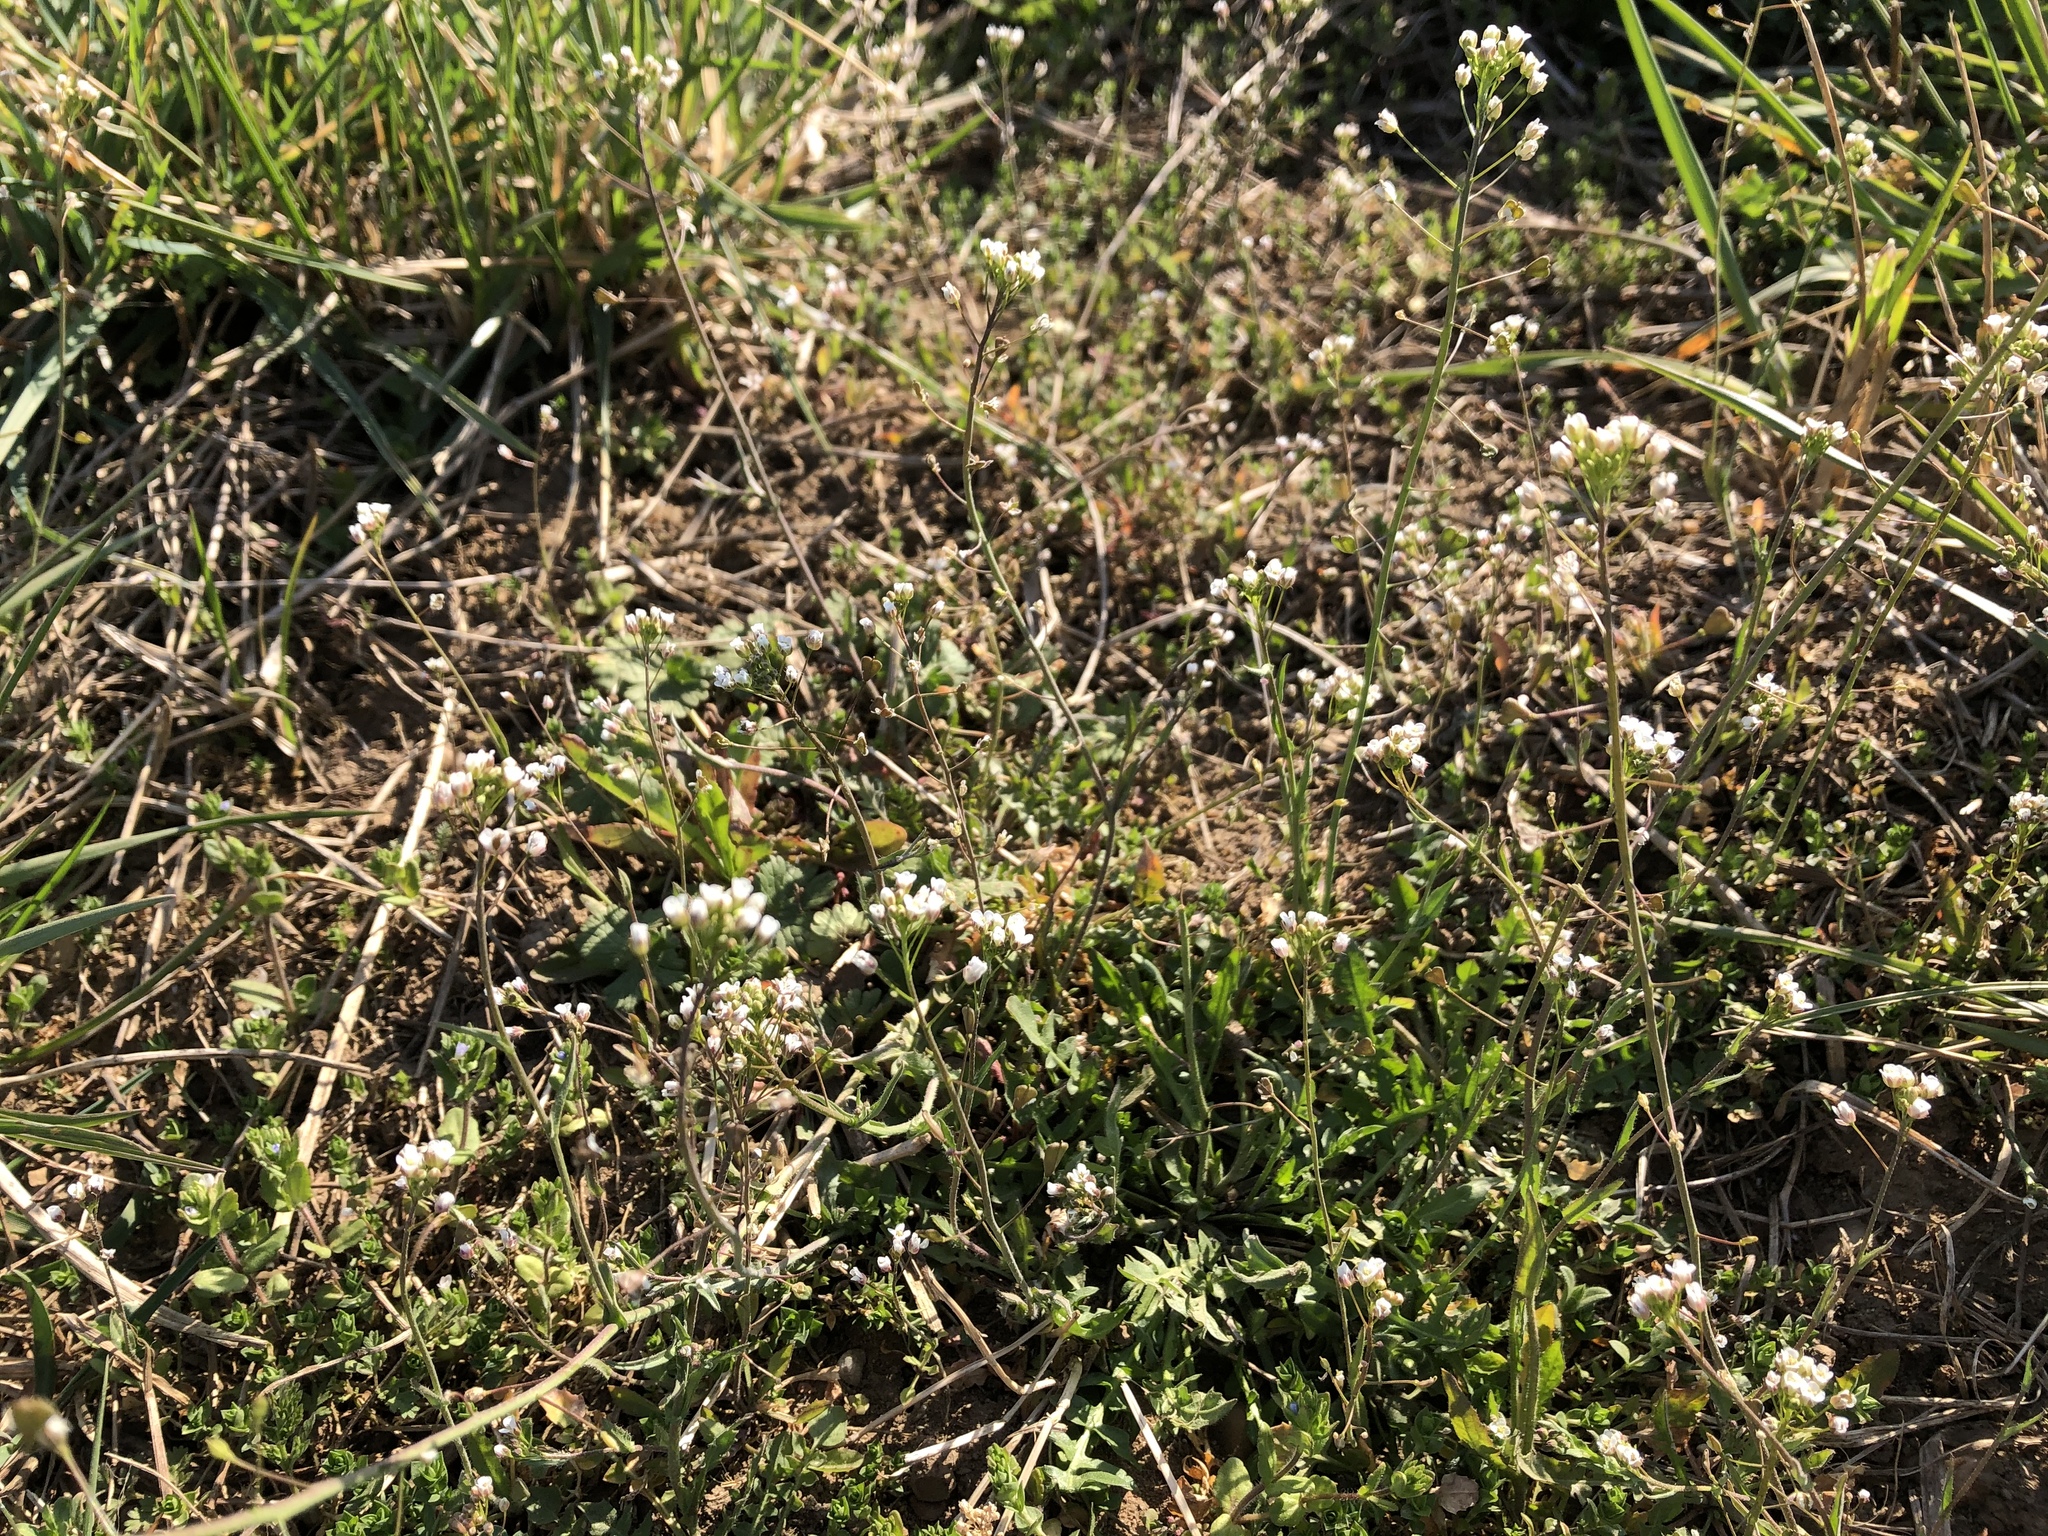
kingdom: Plantae
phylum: Tracheophyta
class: Magnoliopsida
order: Brassicales
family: Brassicaceae
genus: Capsella
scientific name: Capsella bursa-pastoris
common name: Shepherd's purse
